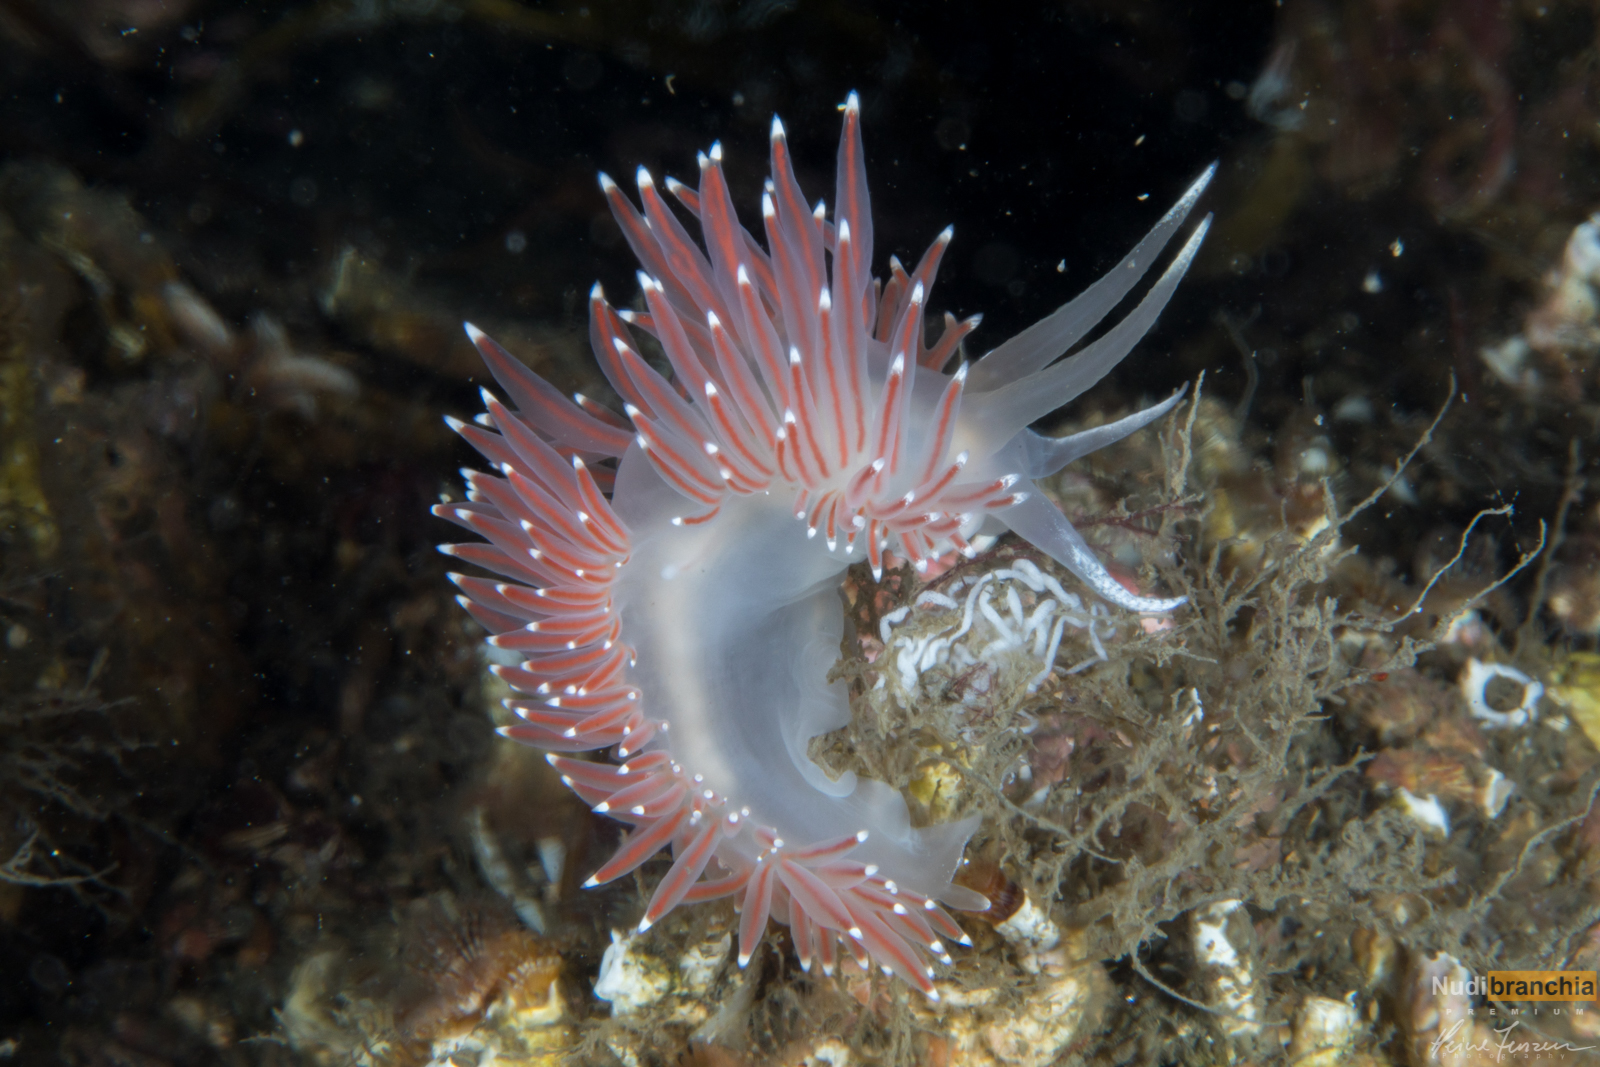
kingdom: Animalia
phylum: Mollusca
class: Gastropoda
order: Nudibranchia
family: Coryphellidae
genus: Coryphella
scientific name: Coryphella browni
